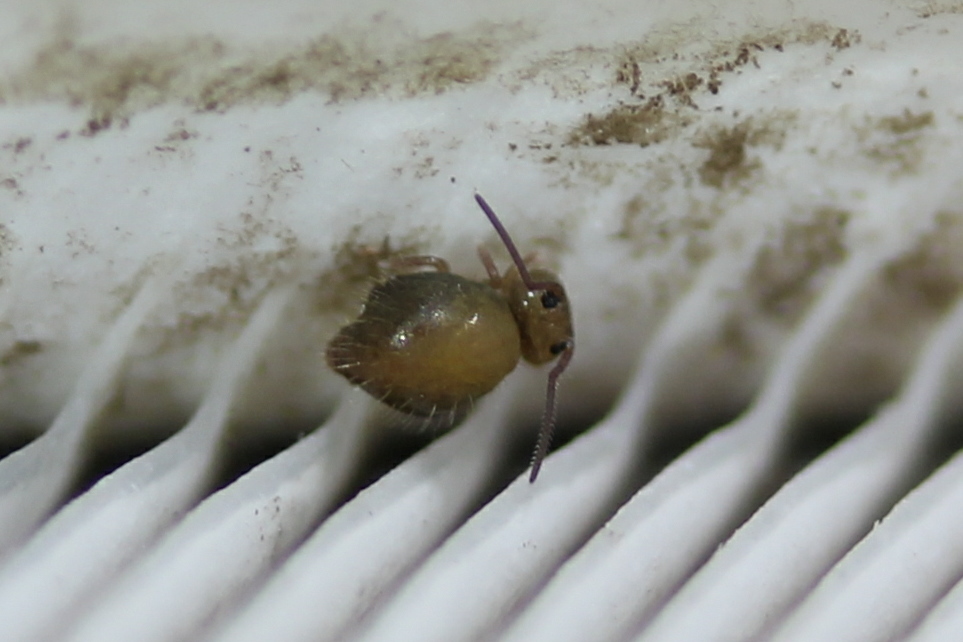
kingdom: Animalia
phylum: Arthropoda
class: Collembola
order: Symphypleona
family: Sminthuridae
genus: Sminthurus
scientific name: Sminthurus incisus
